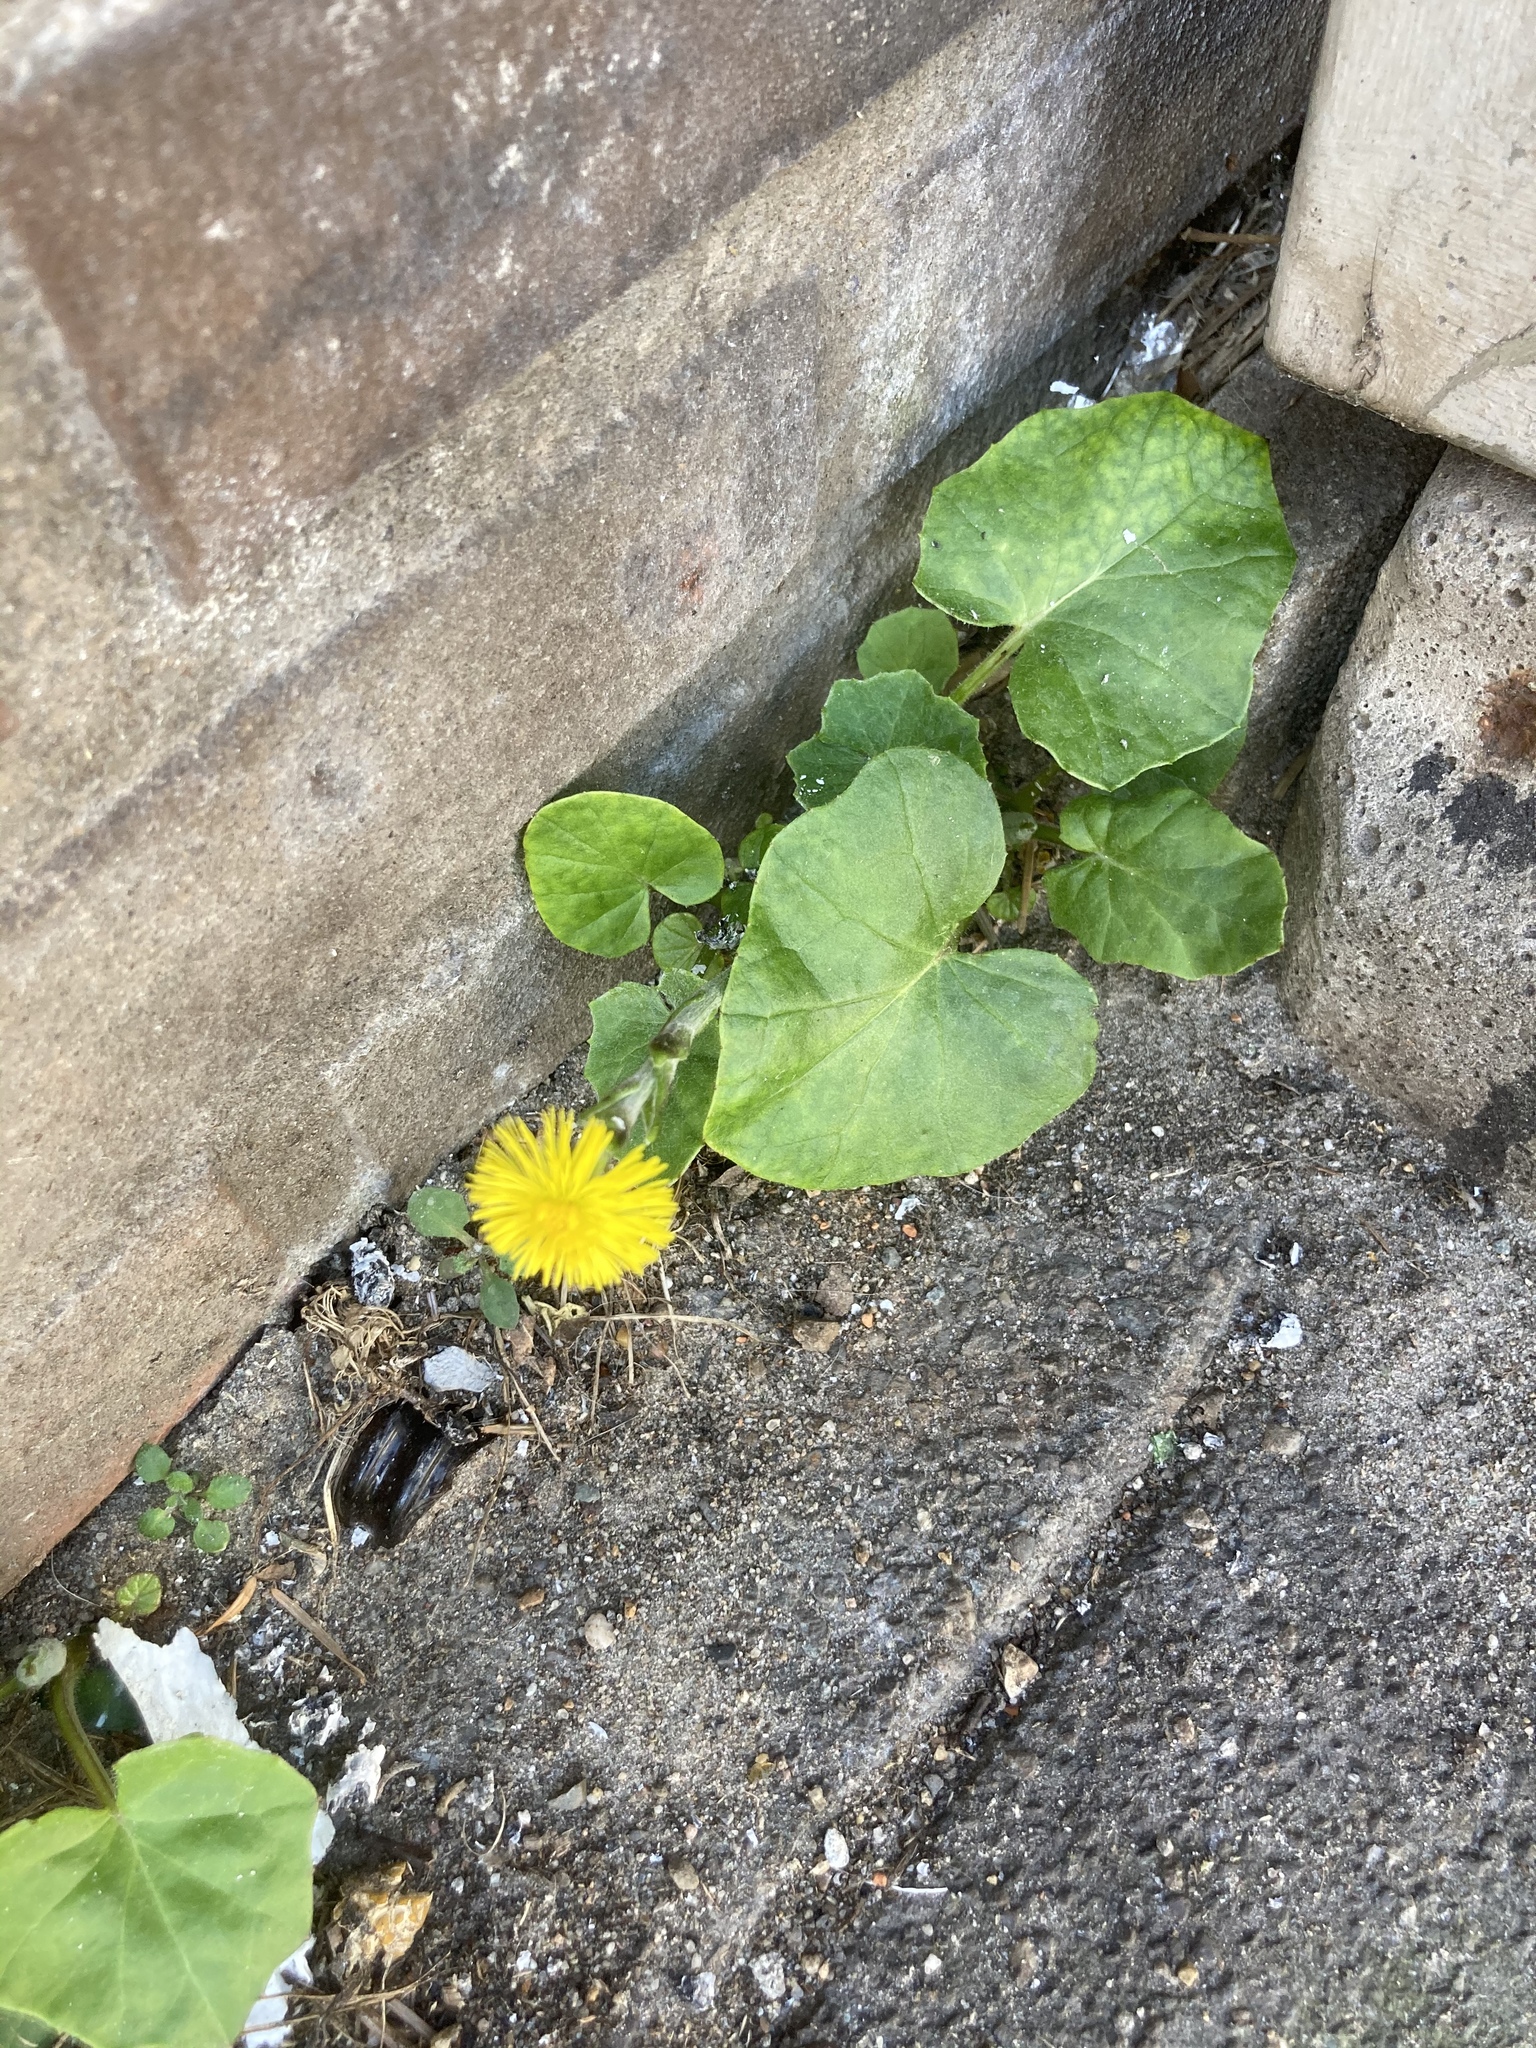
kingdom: Plantae
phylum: Tracheophyta
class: Magnoliopsida
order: Asterales
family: Asteraceae
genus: Tussilago
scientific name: Tussilago farfara
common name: Coltsfoot
